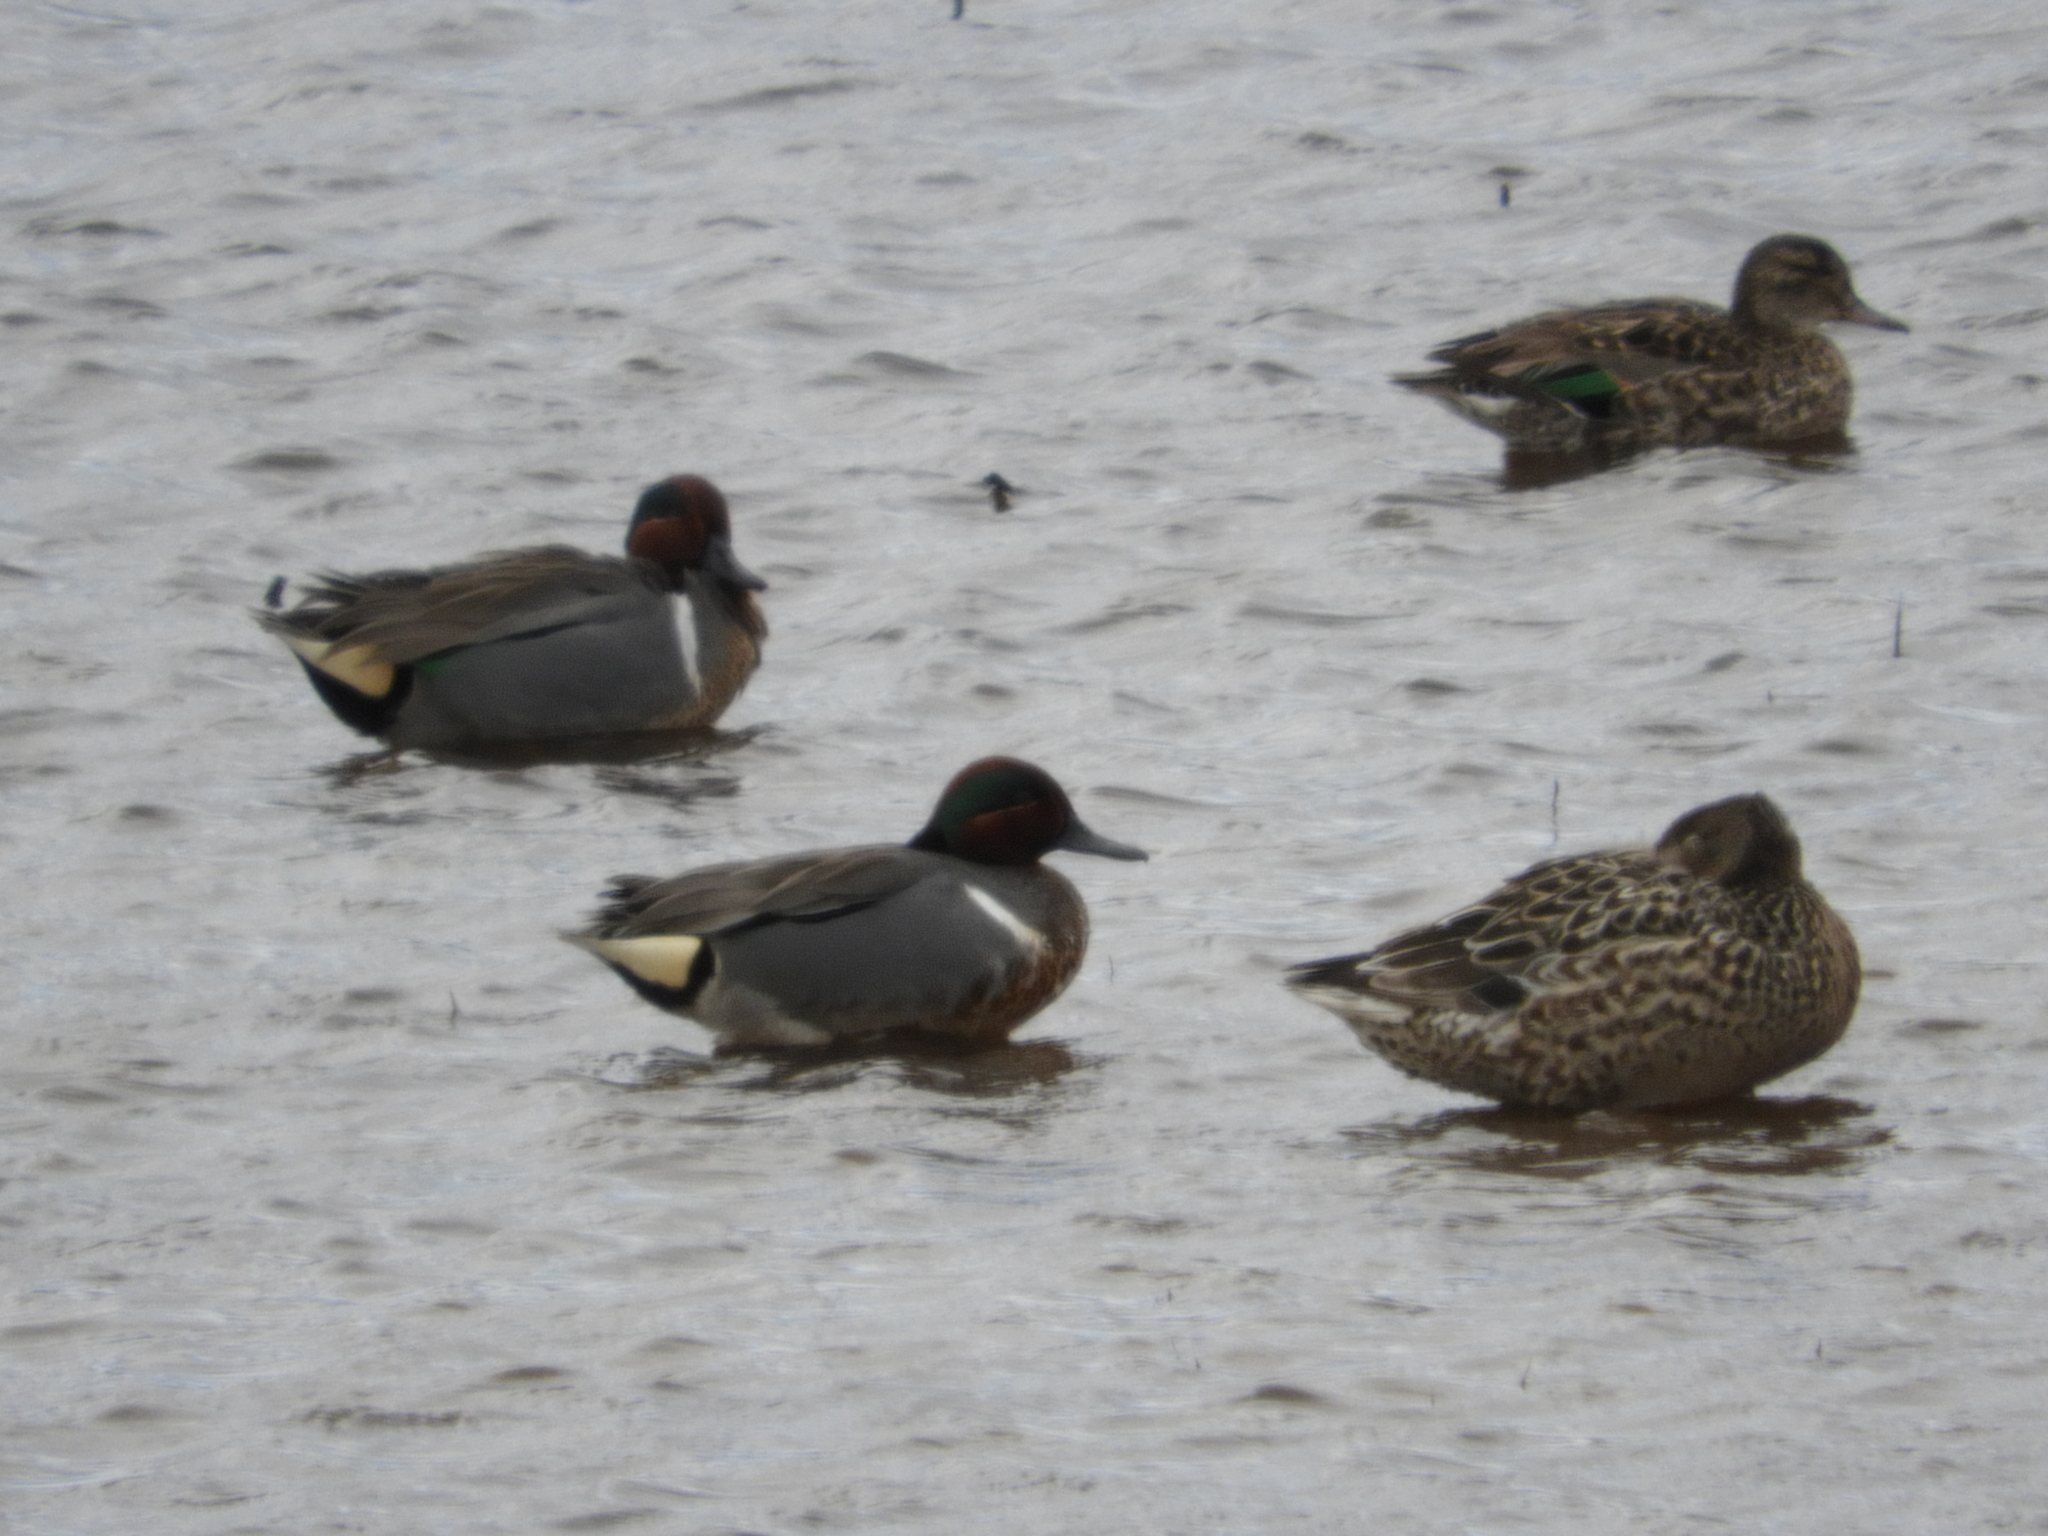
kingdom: Animalia
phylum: Chordata
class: Aves
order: Anseriformes
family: Anatidae
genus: Anas
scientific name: Anas crecca
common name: Eurasian teal
